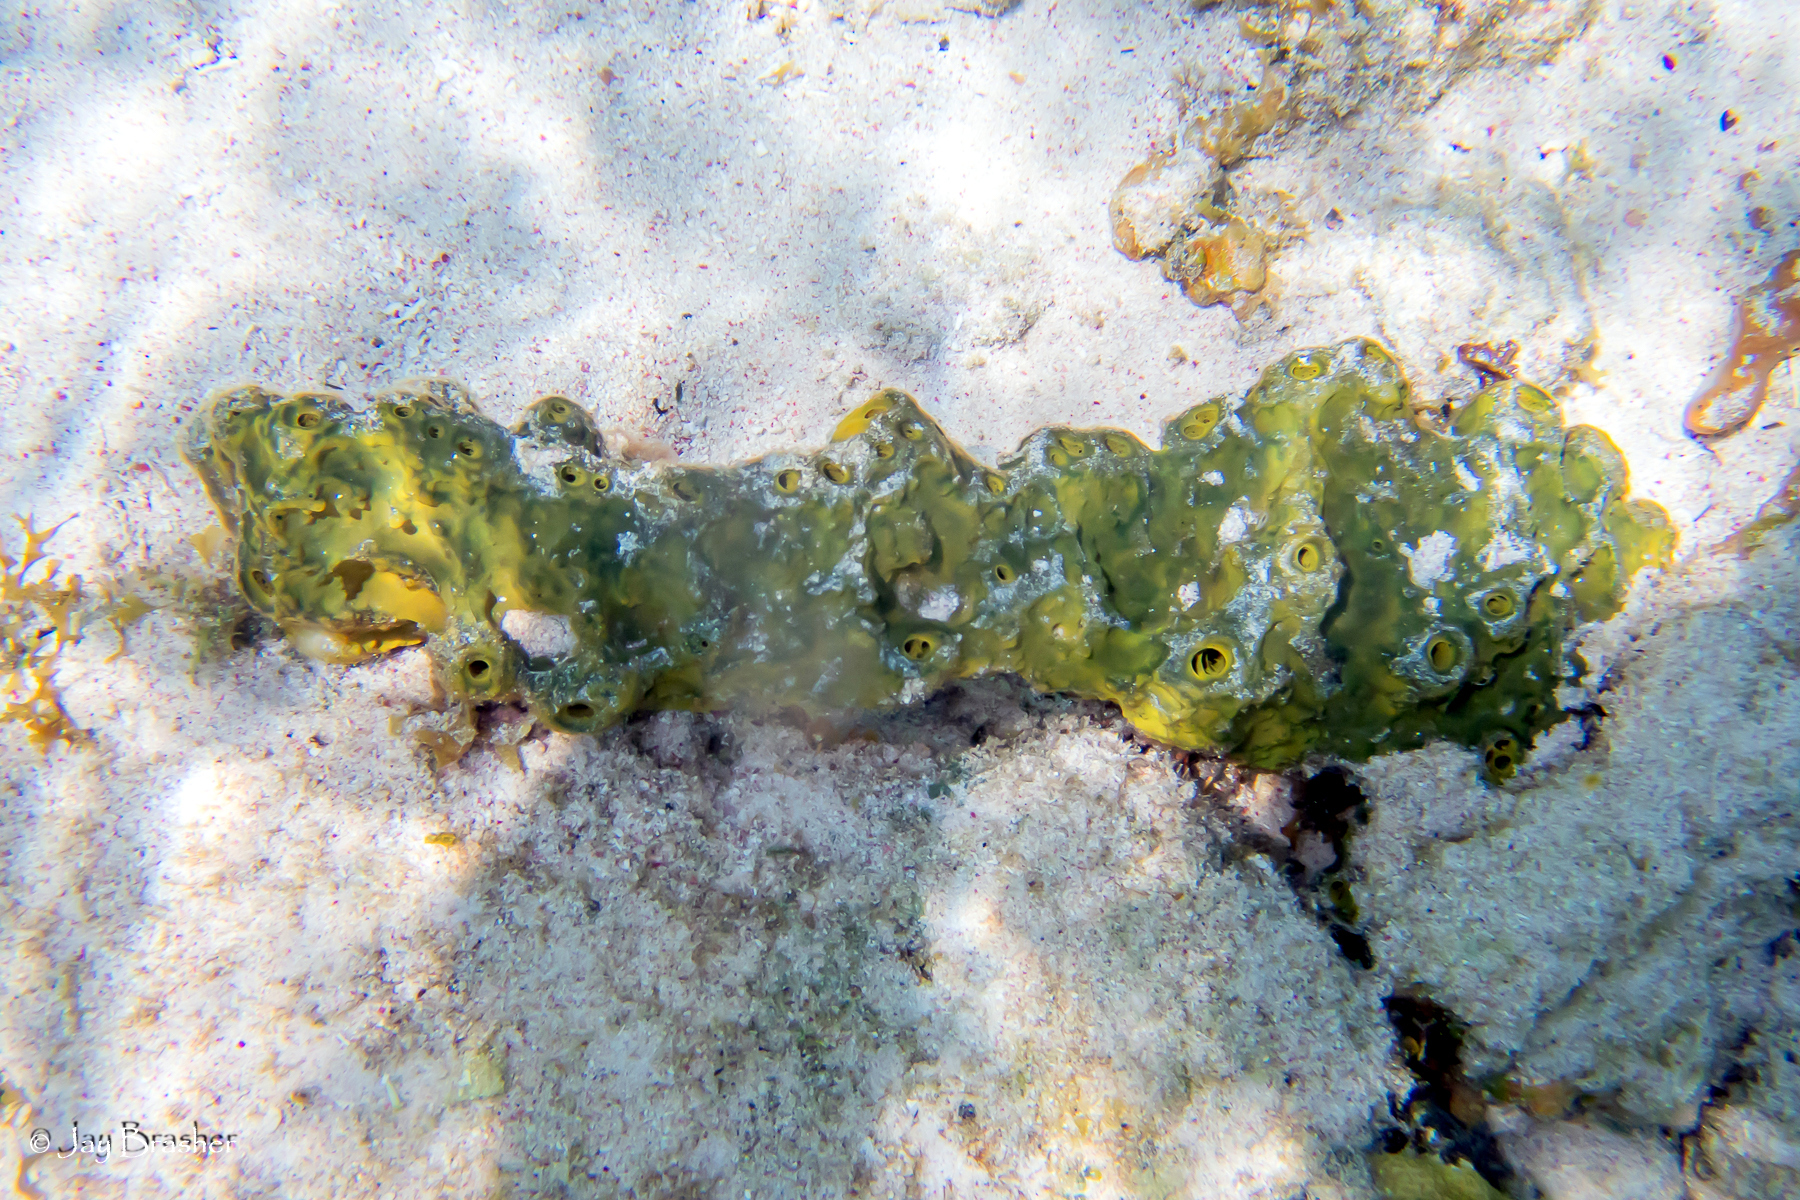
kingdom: Animalia
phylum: Porifera
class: Demospongiae
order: Verongiida
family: Aplysinidae
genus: Verongula
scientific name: Verongula rigida
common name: Pitted sponge
